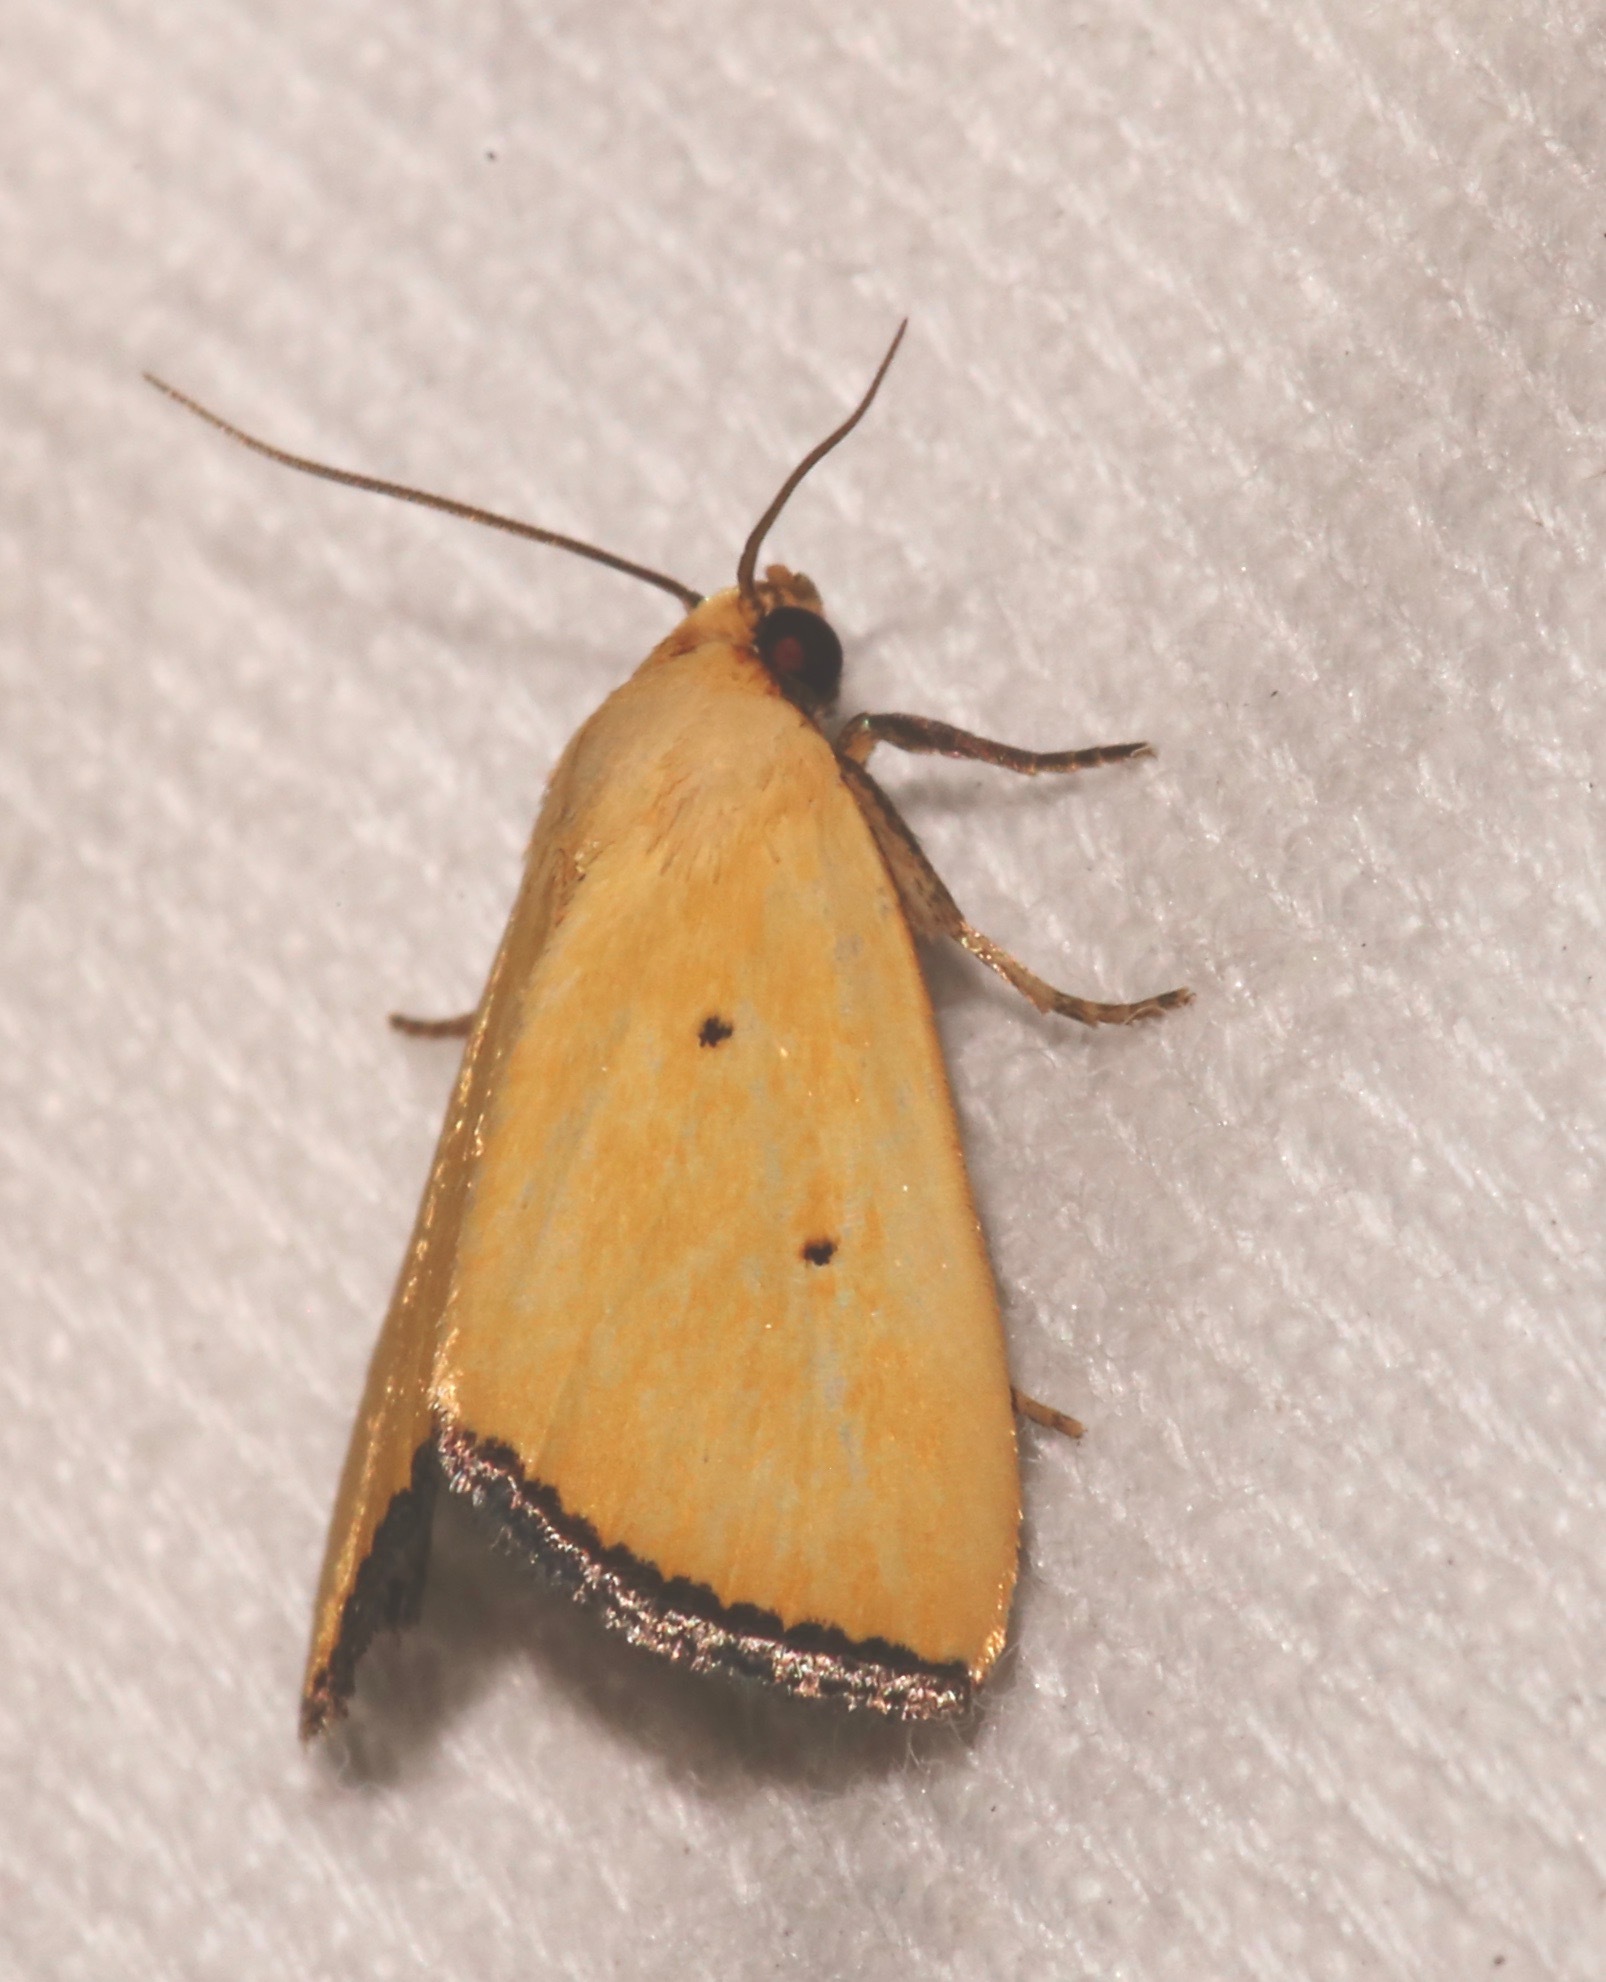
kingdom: Animalia
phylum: Arthropoda
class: Insecta
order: Lepidoptera
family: Noctuidae
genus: Marimatha
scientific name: Marimatha nigrofimbria
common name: Black-bordered lemon moth
